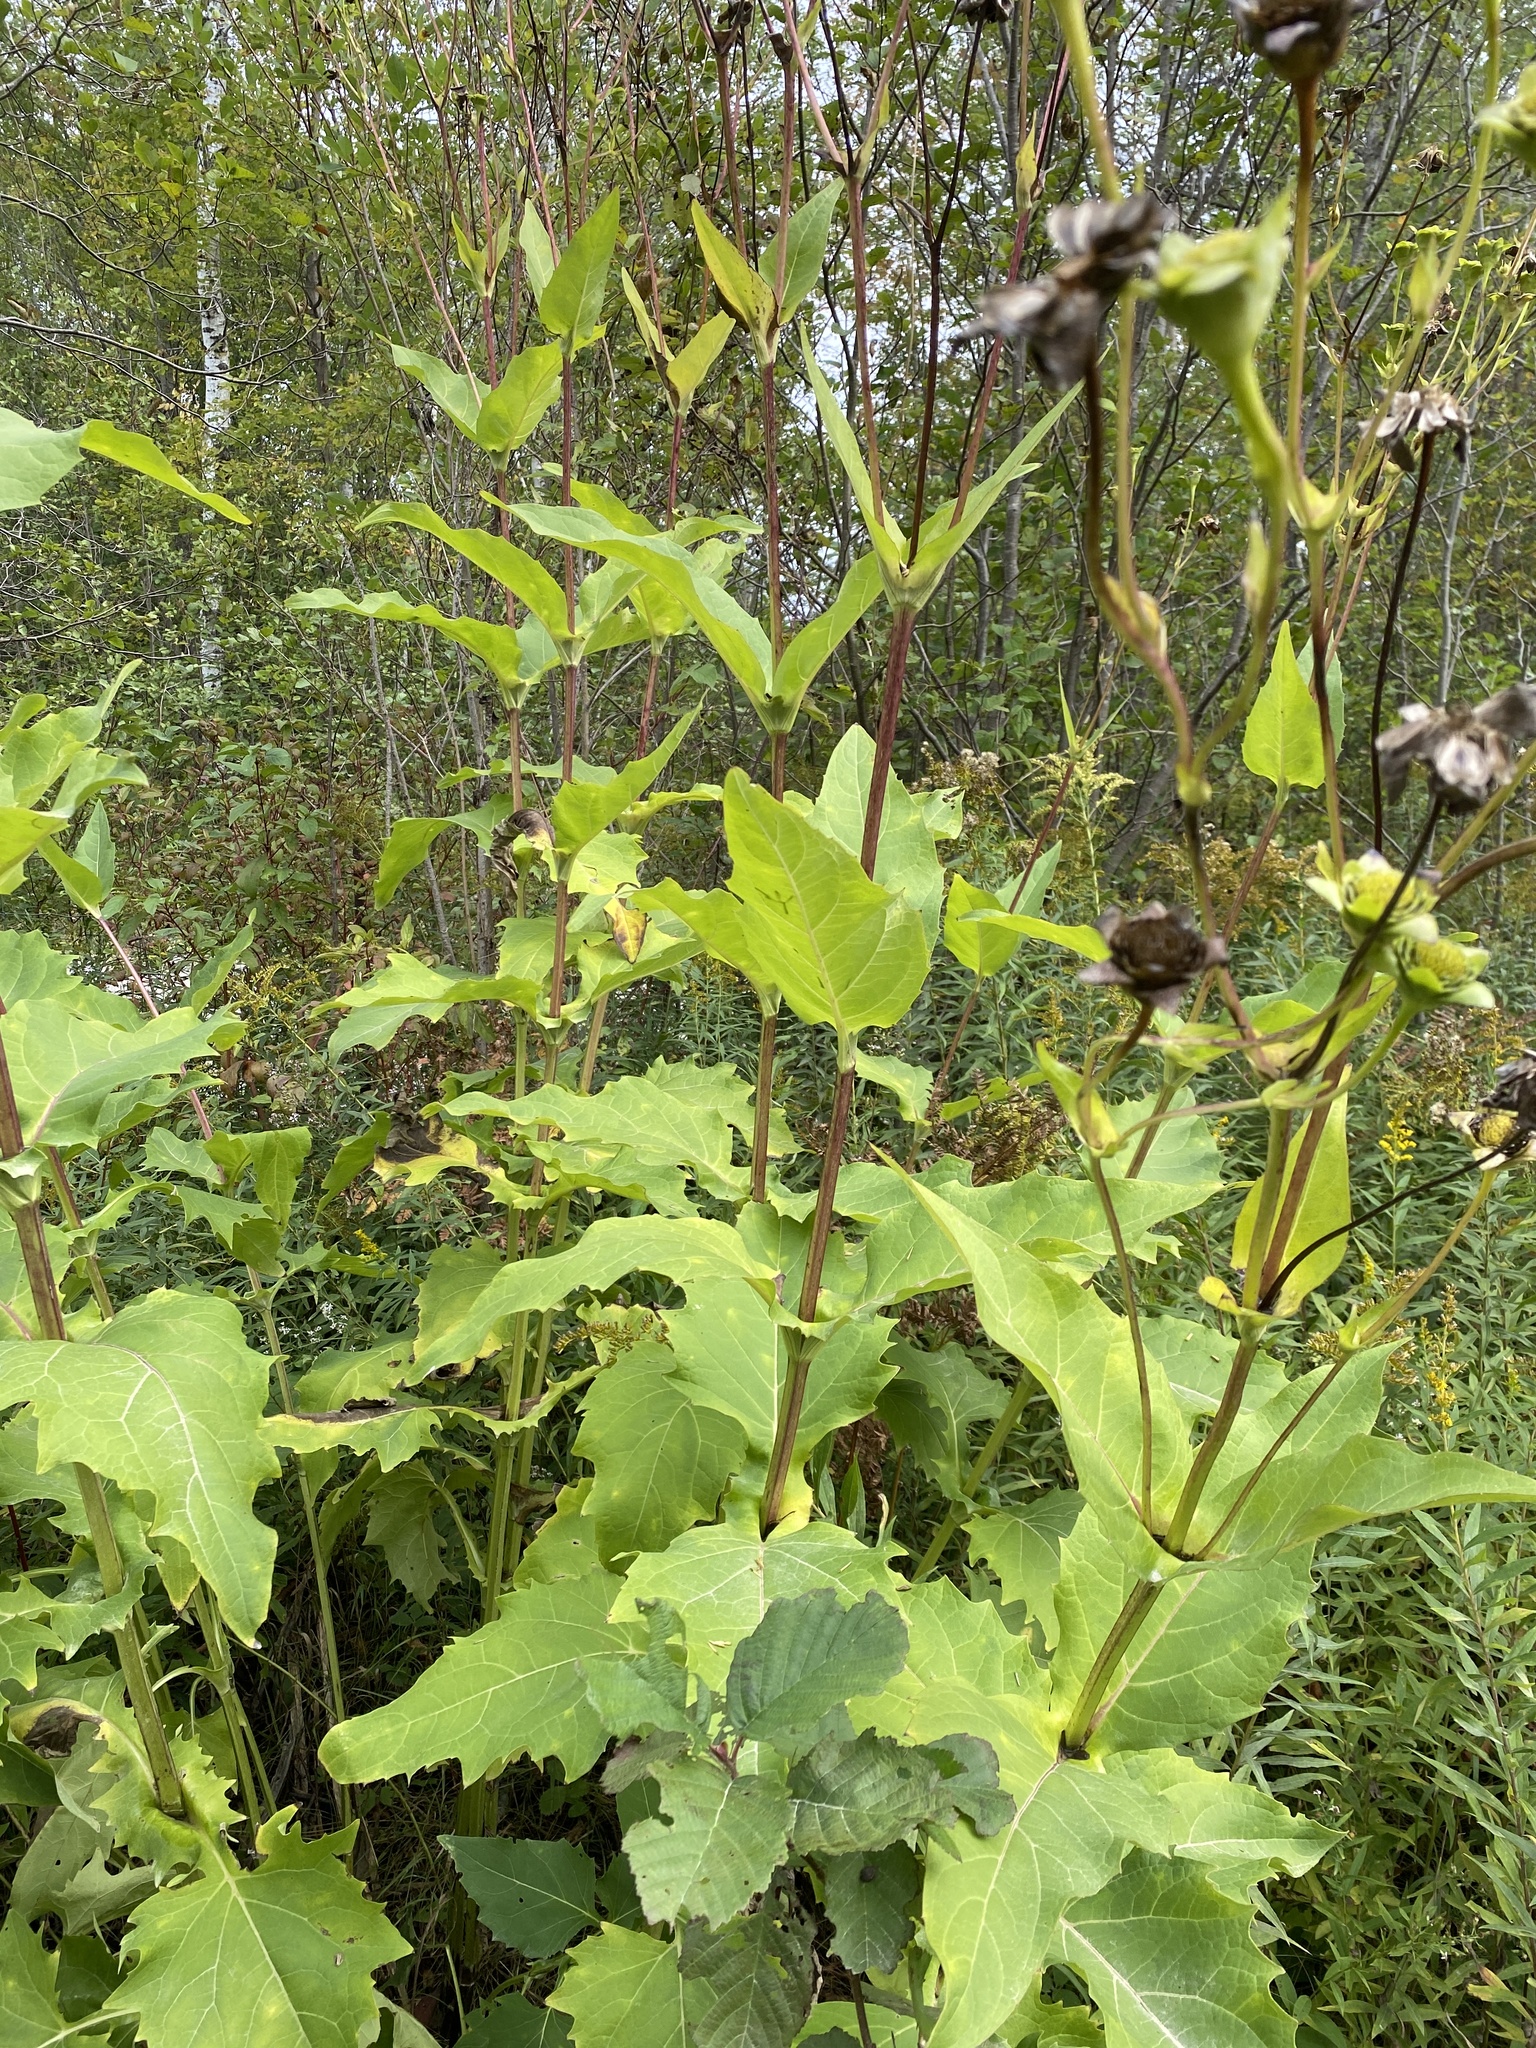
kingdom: Plantae
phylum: Tracheophyta
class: Magnoliopsida
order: Asterales
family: Asteraceae
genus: Silphium
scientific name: Silphium perfoliatum
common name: Cup-plant
